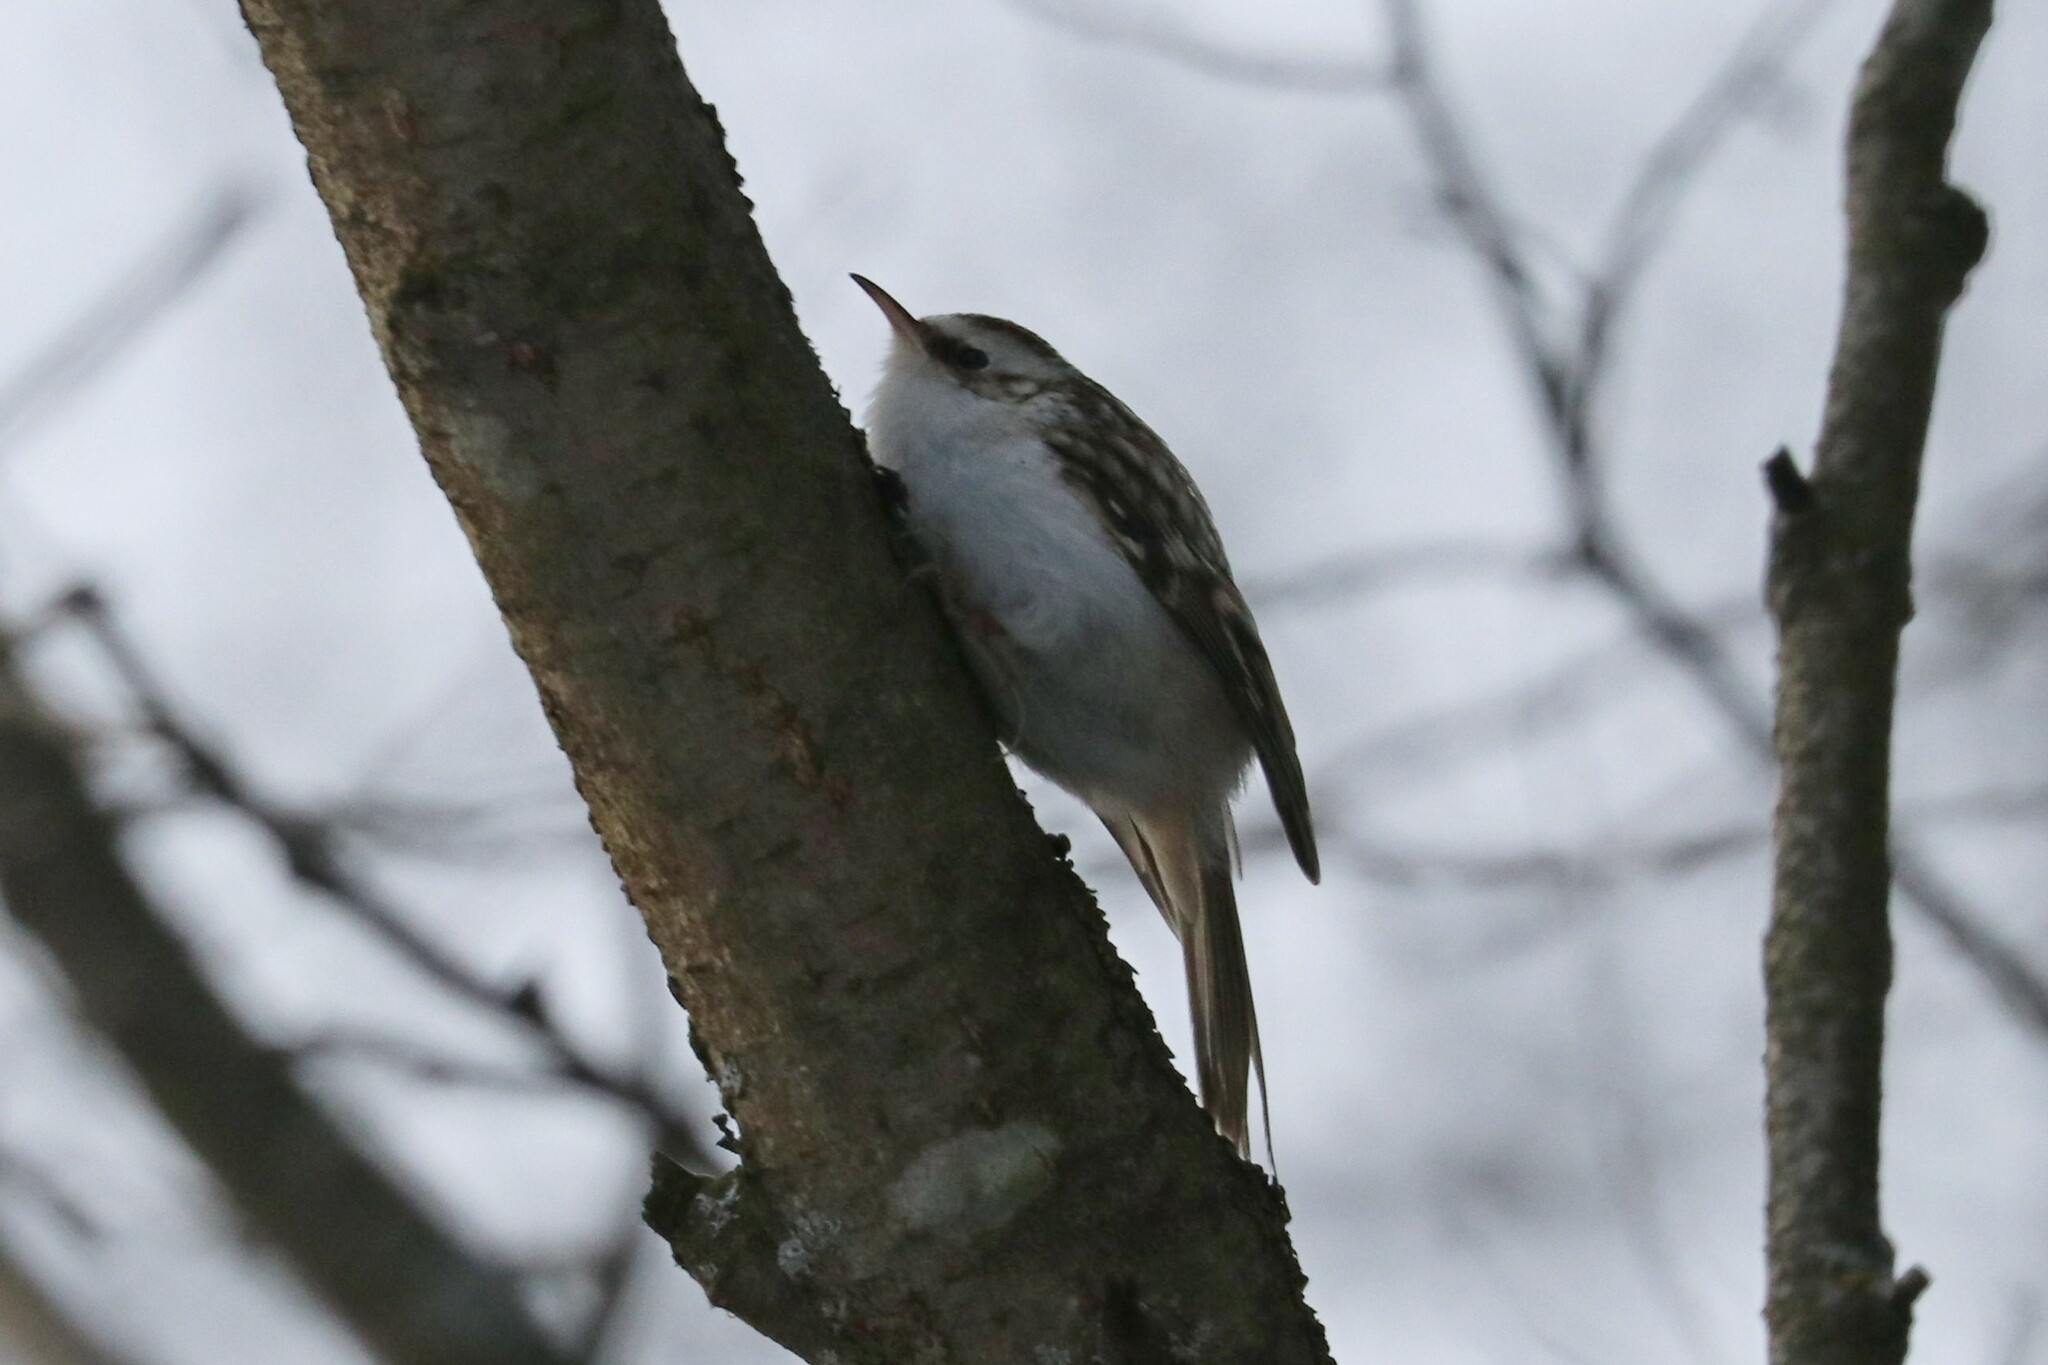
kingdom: Animalia
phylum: Chordata
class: Aves
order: Passeriformes
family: Certhiidae
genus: Certhia
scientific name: Certhia familiaris
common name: Eurasian treecreeper
